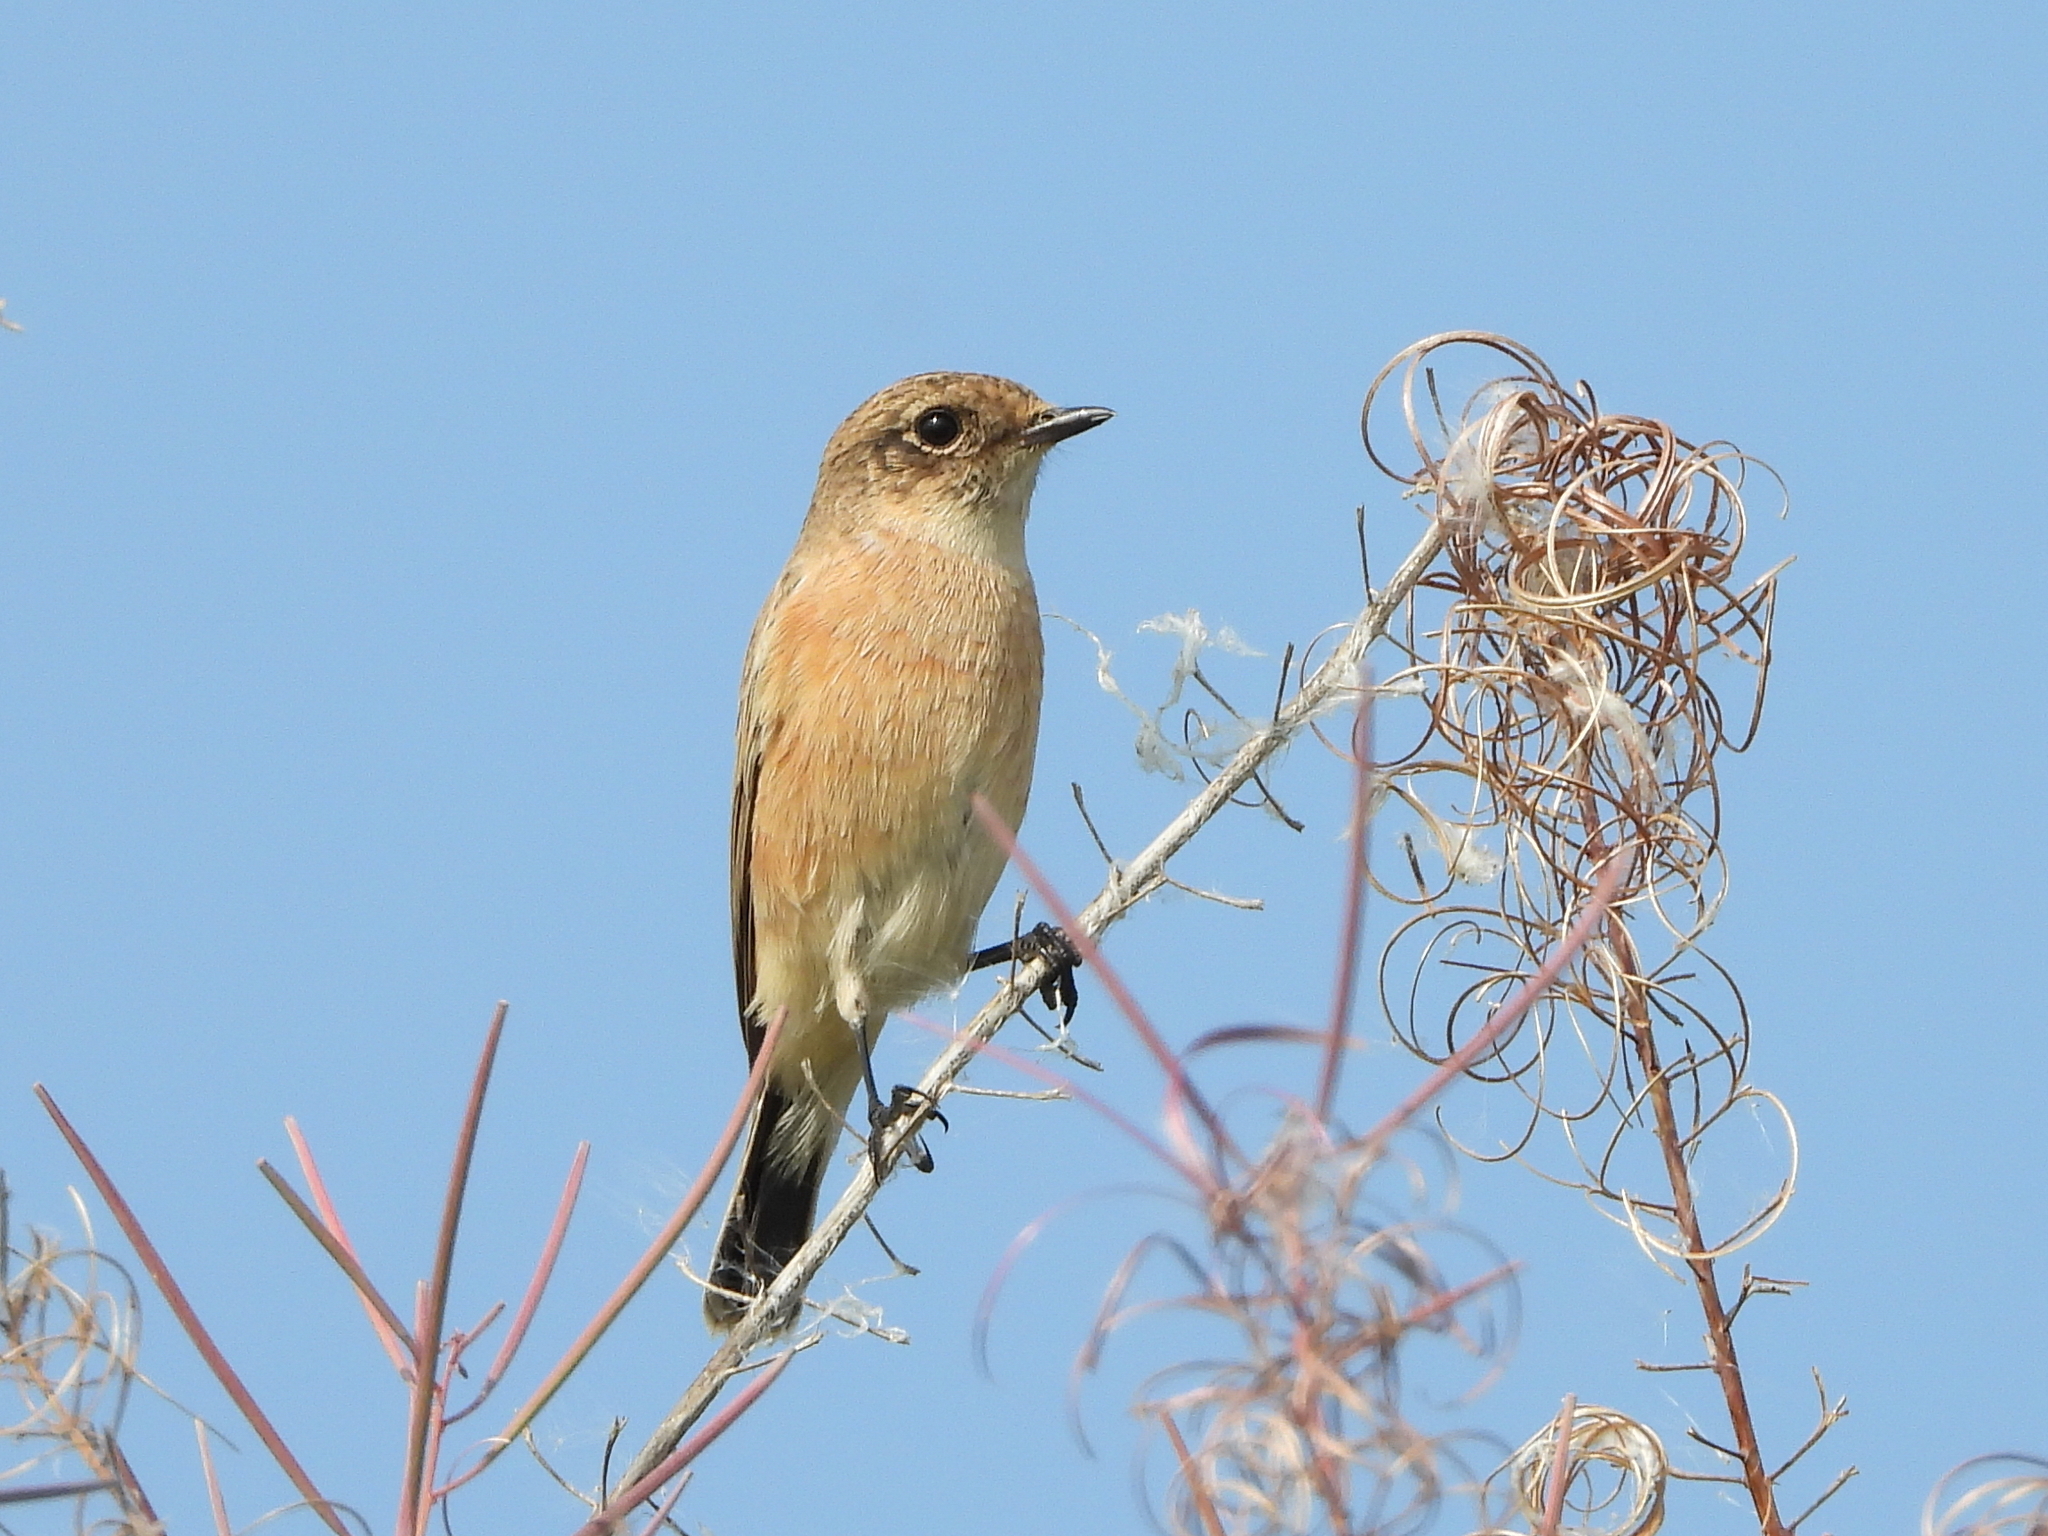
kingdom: Animalia
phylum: Chordata
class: Aves
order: Passeriformes
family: Muscicapidae
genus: Saxicola
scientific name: Saxicola maurus
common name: Siberian stonechat
